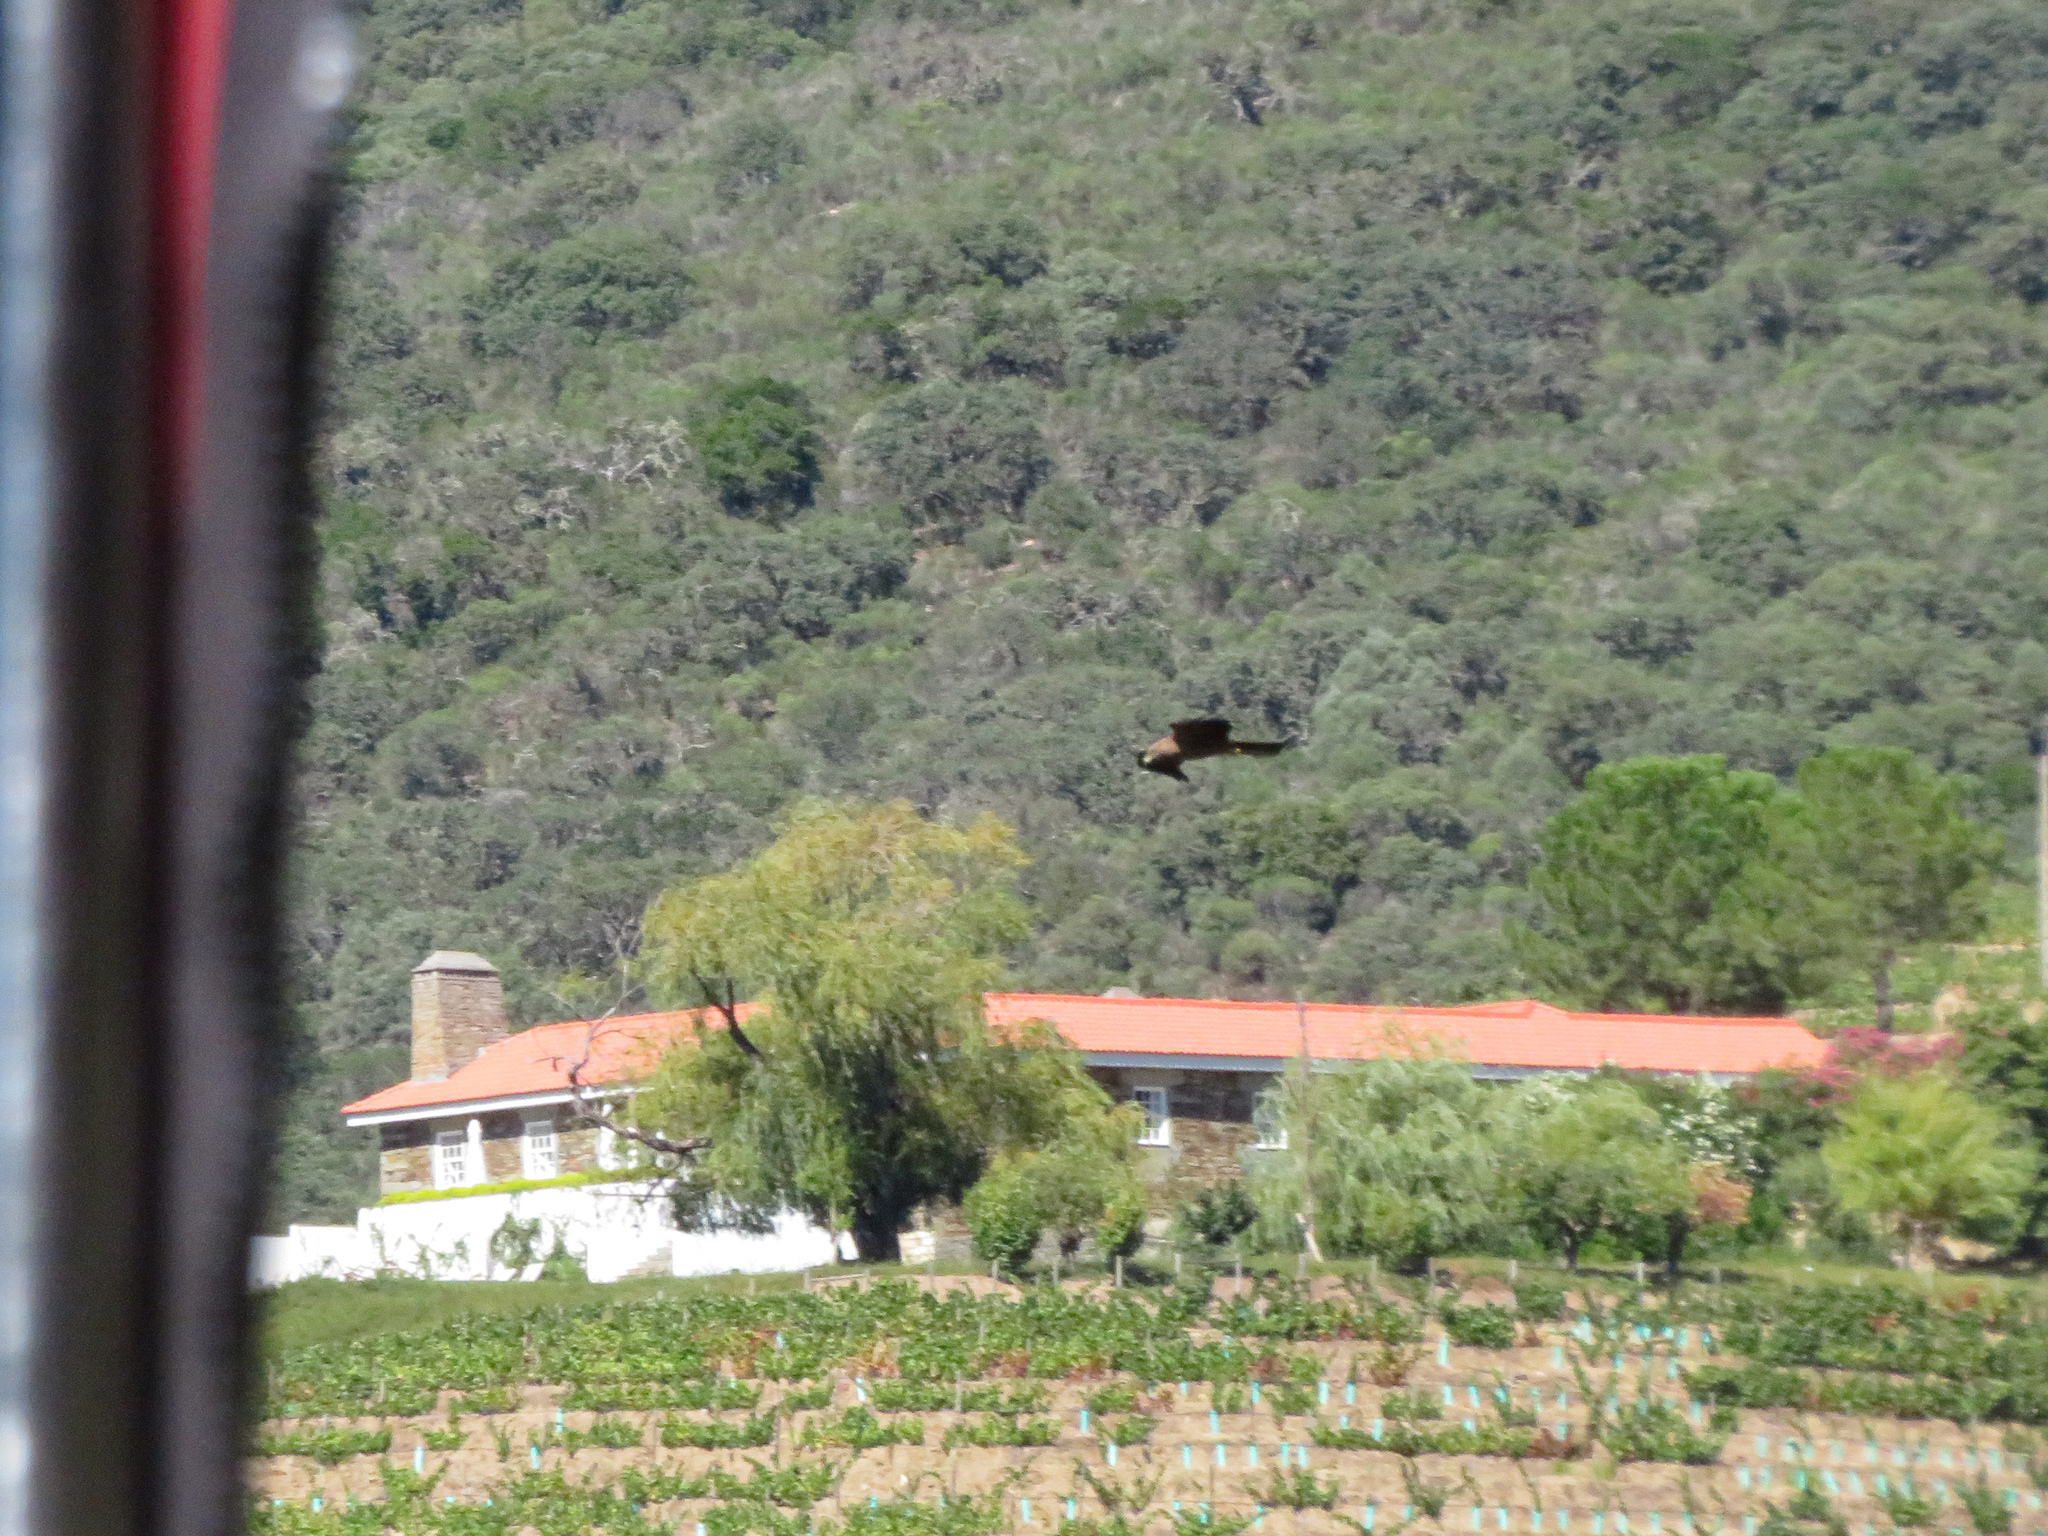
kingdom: Animalia
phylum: Chordata
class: Aves
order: Accipitriformes
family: Accipitridae
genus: Milvus
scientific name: Milvus migrans
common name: Black kite
